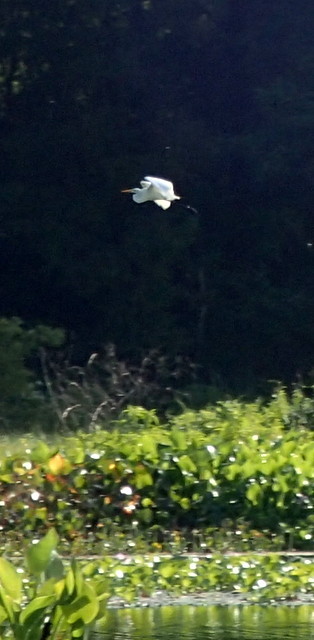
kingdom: Animalia
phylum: Chordata
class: Aves
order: Pelecaniformes
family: Ardeidae
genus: Ardea
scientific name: Ardea alba
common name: Great egret
